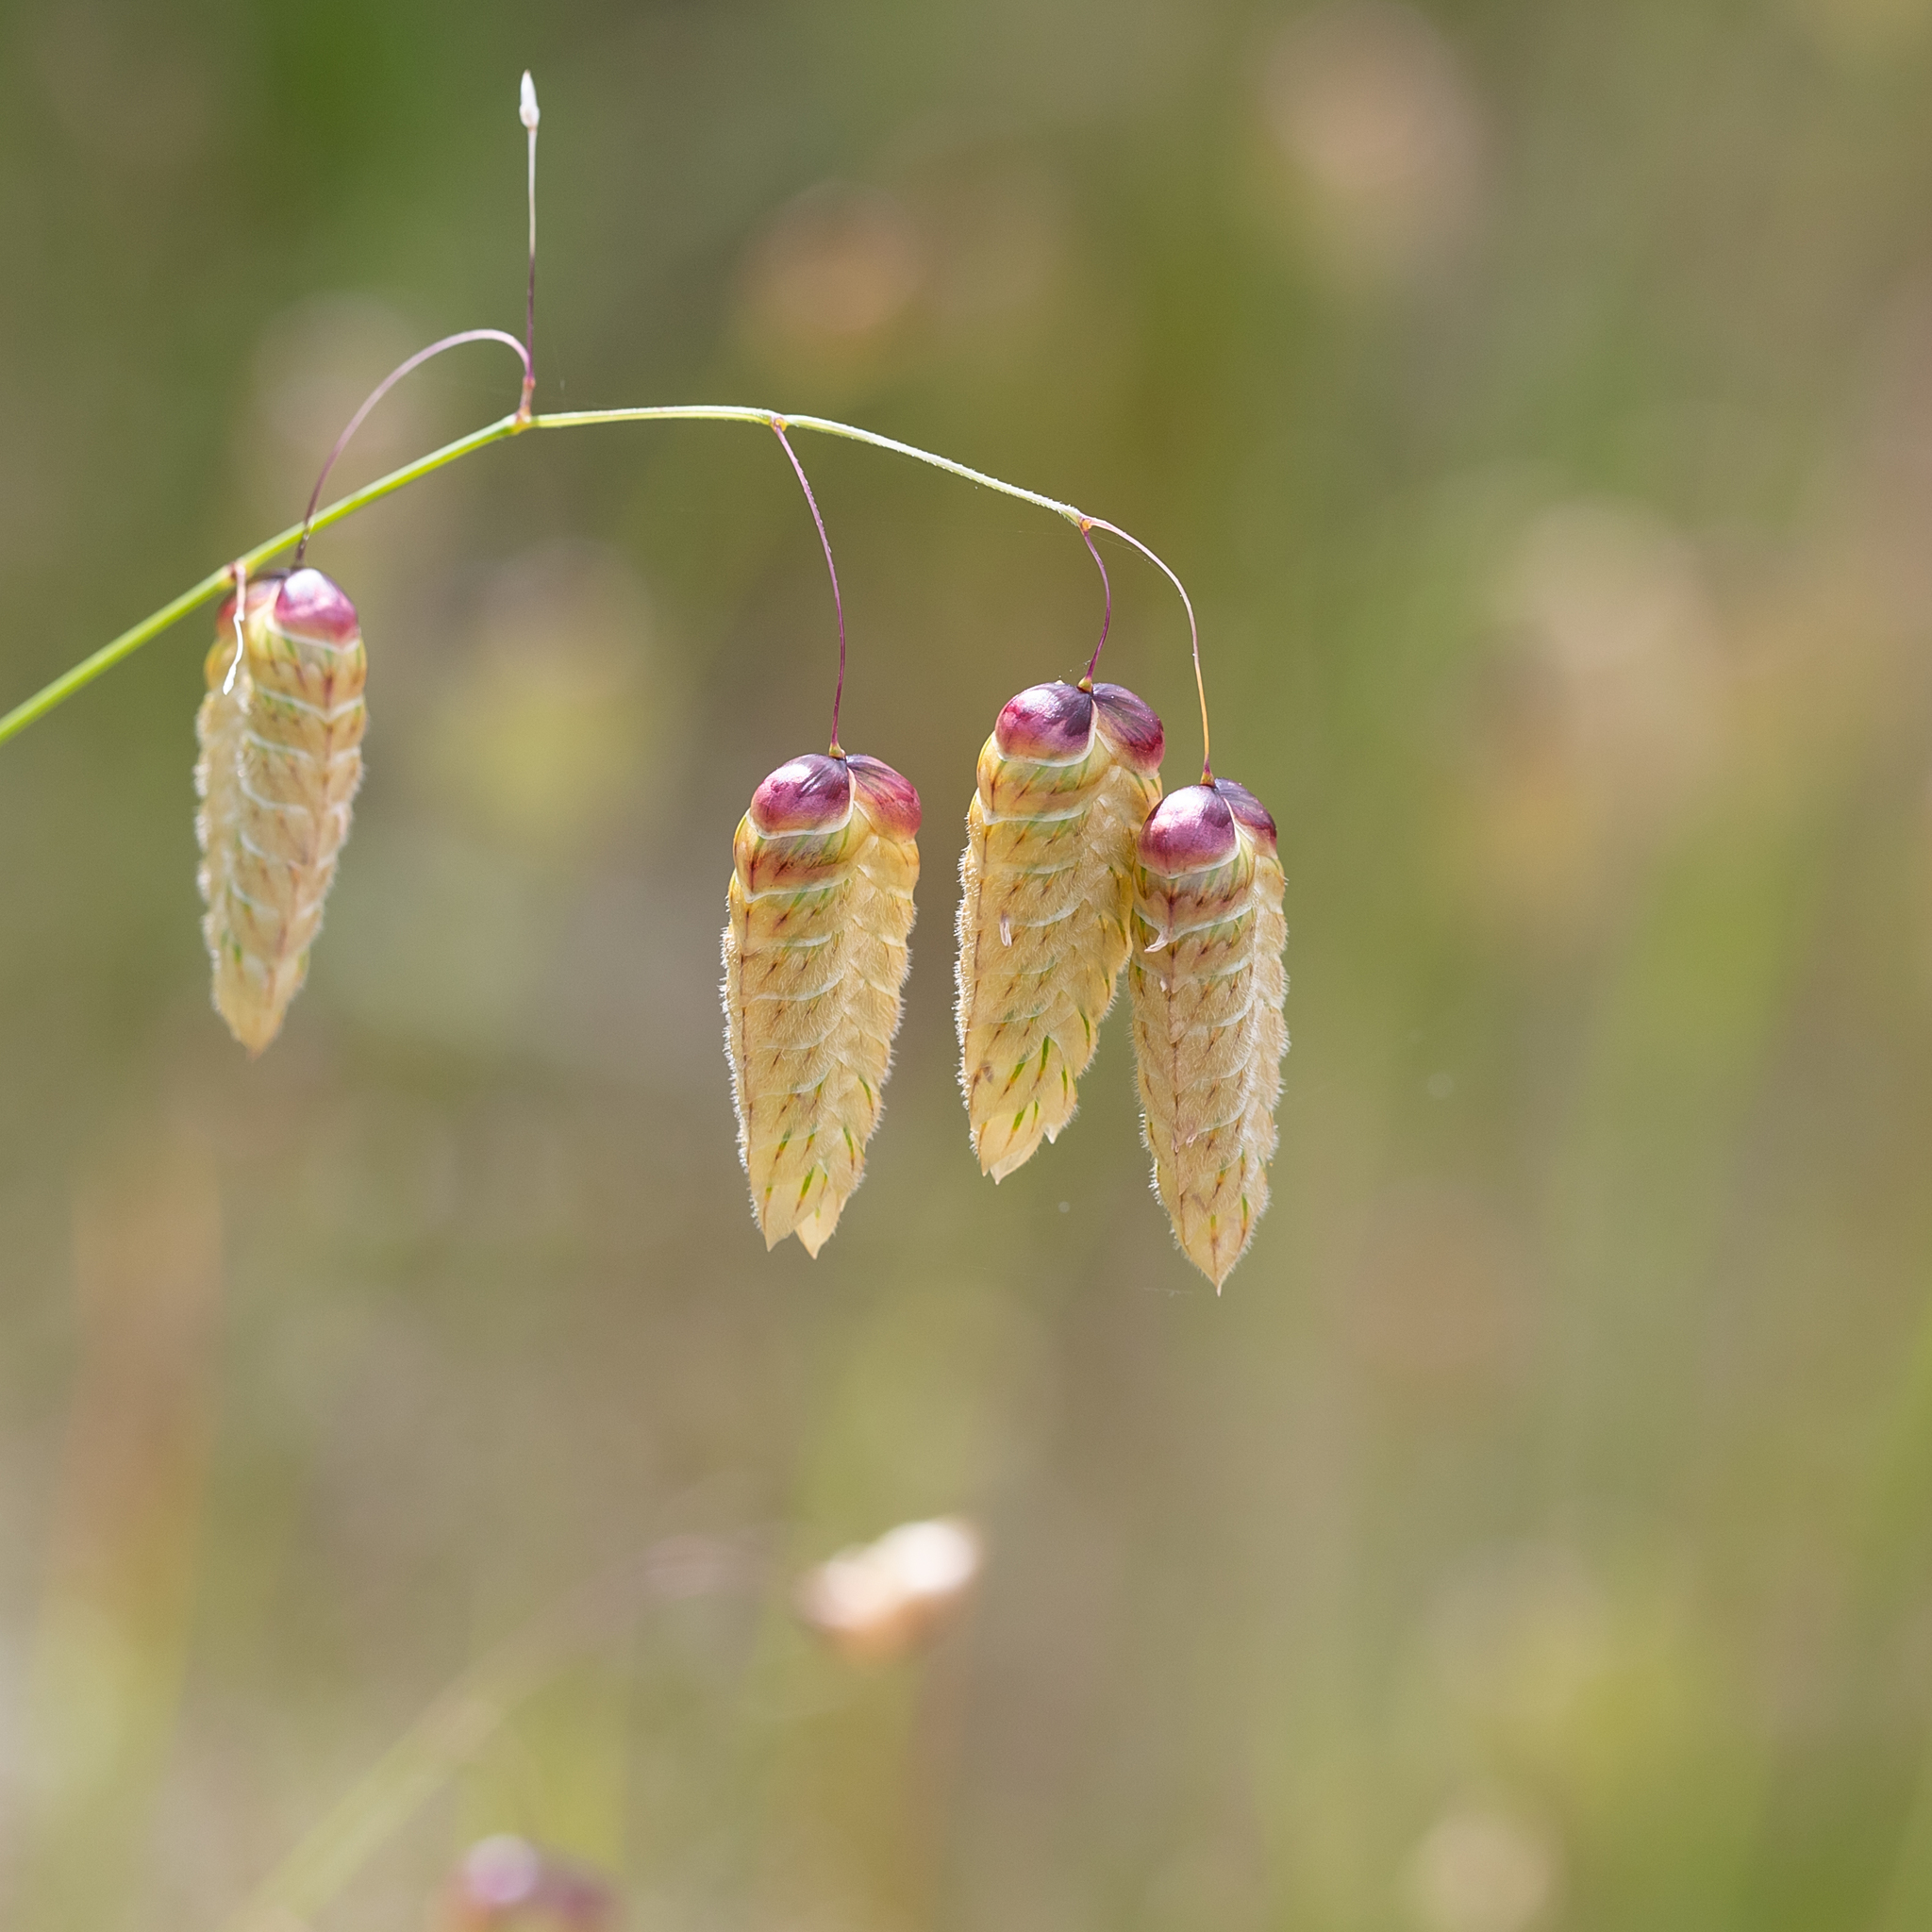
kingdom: Plantae
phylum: Tracheophyta
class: Liliopsida
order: Poales
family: Poaceae
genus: Briza
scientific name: Briza maxima
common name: Big quakinggrass
